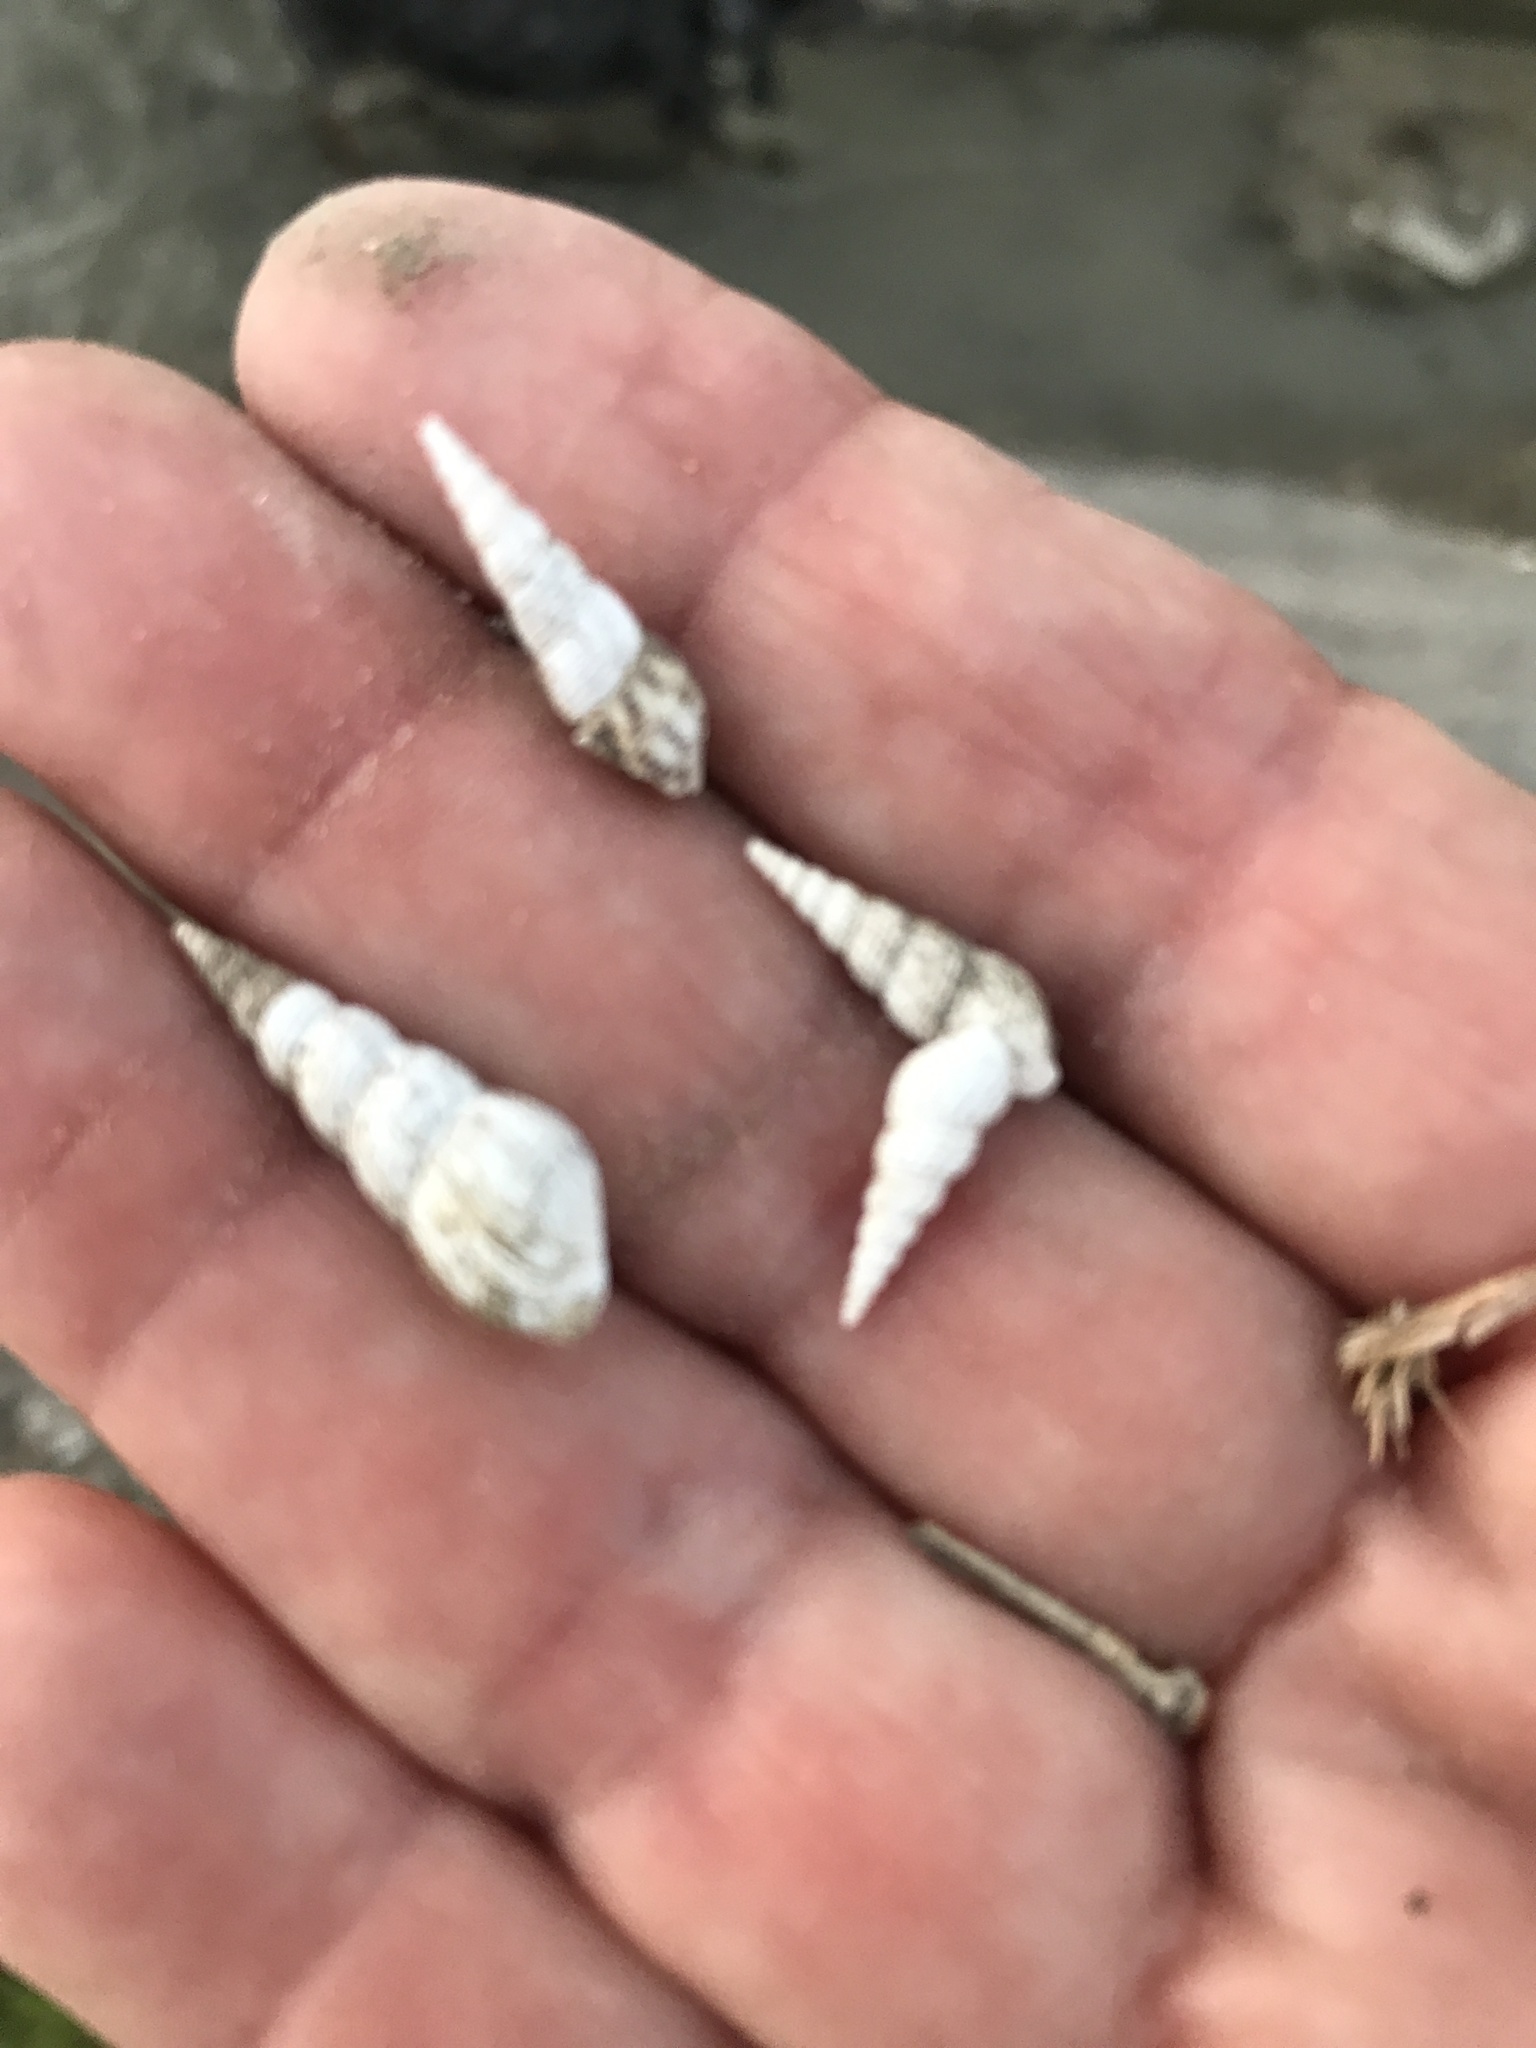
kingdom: Animalia
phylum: Mollusca
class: Gastropoda
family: Thiaridae
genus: Melanoides
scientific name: Melanoides tuberculata
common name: Red-rim melania
